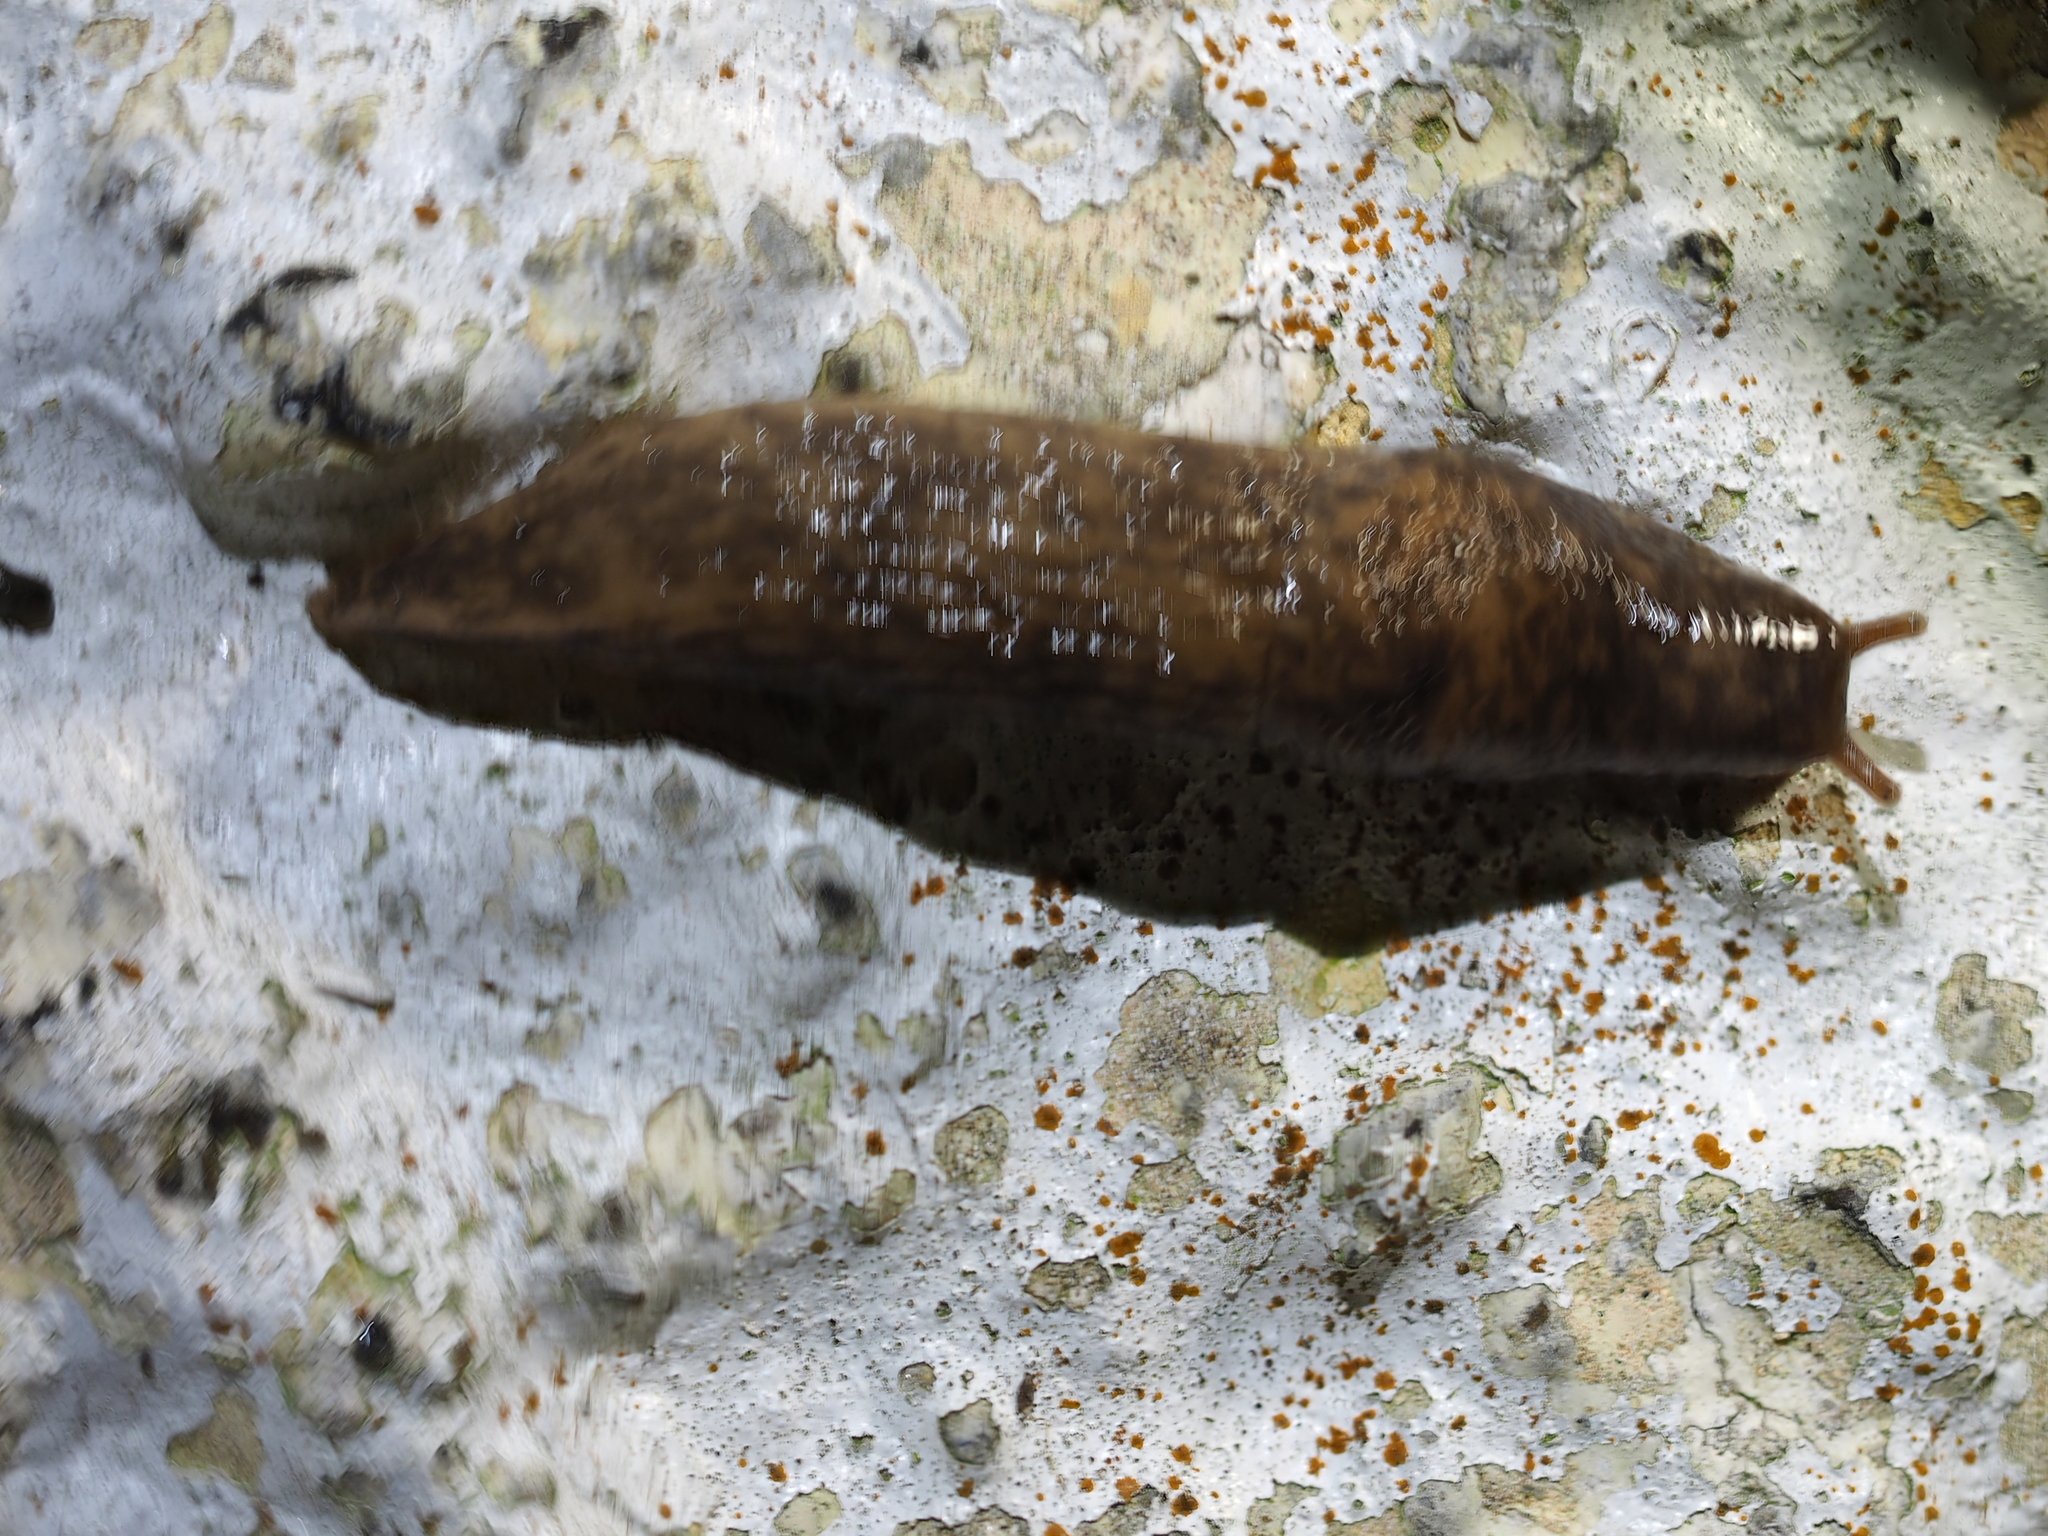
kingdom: Animalia
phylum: Mollusca
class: Gastropoda
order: Stylommatophora
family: Agriolimacidae
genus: Deroceras
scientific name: Deroceras reticulatum
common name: Gray field slug
